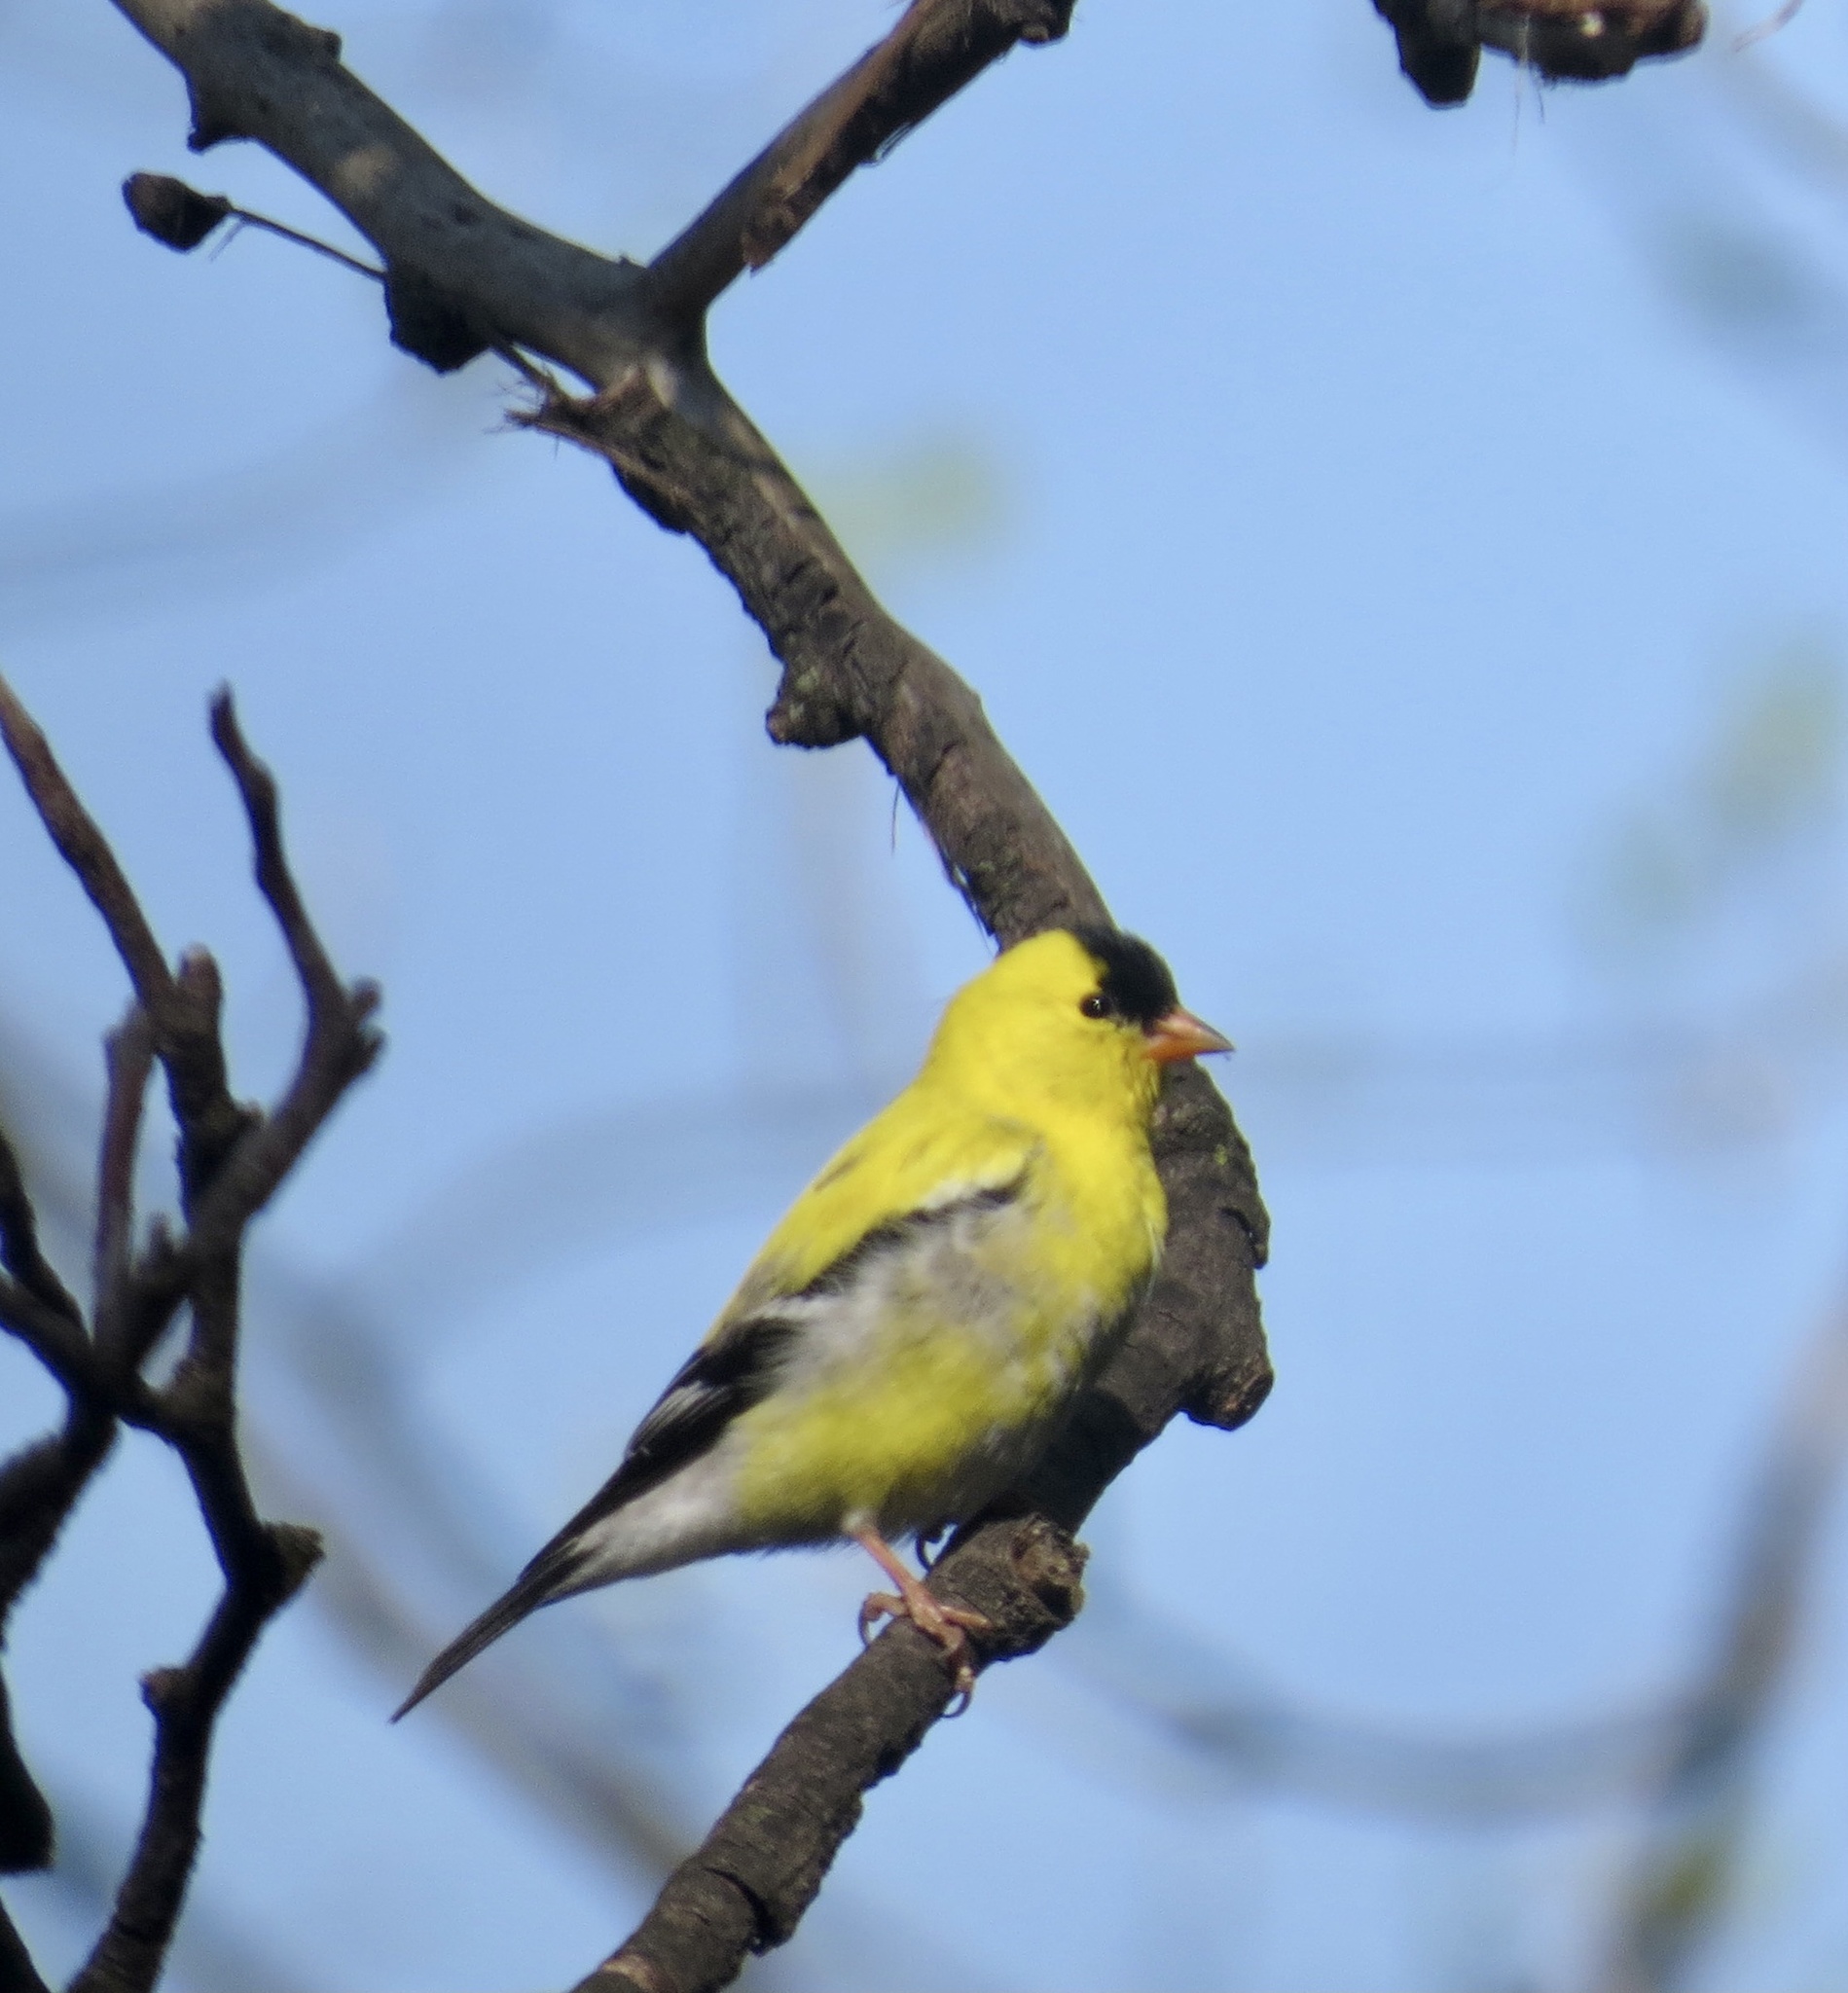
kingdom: Animalia
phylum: Chordata
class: Aves
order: Passeriformes
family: Fringillidae
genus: Spinus
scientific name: Spinus tristis
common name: American goldfinch
